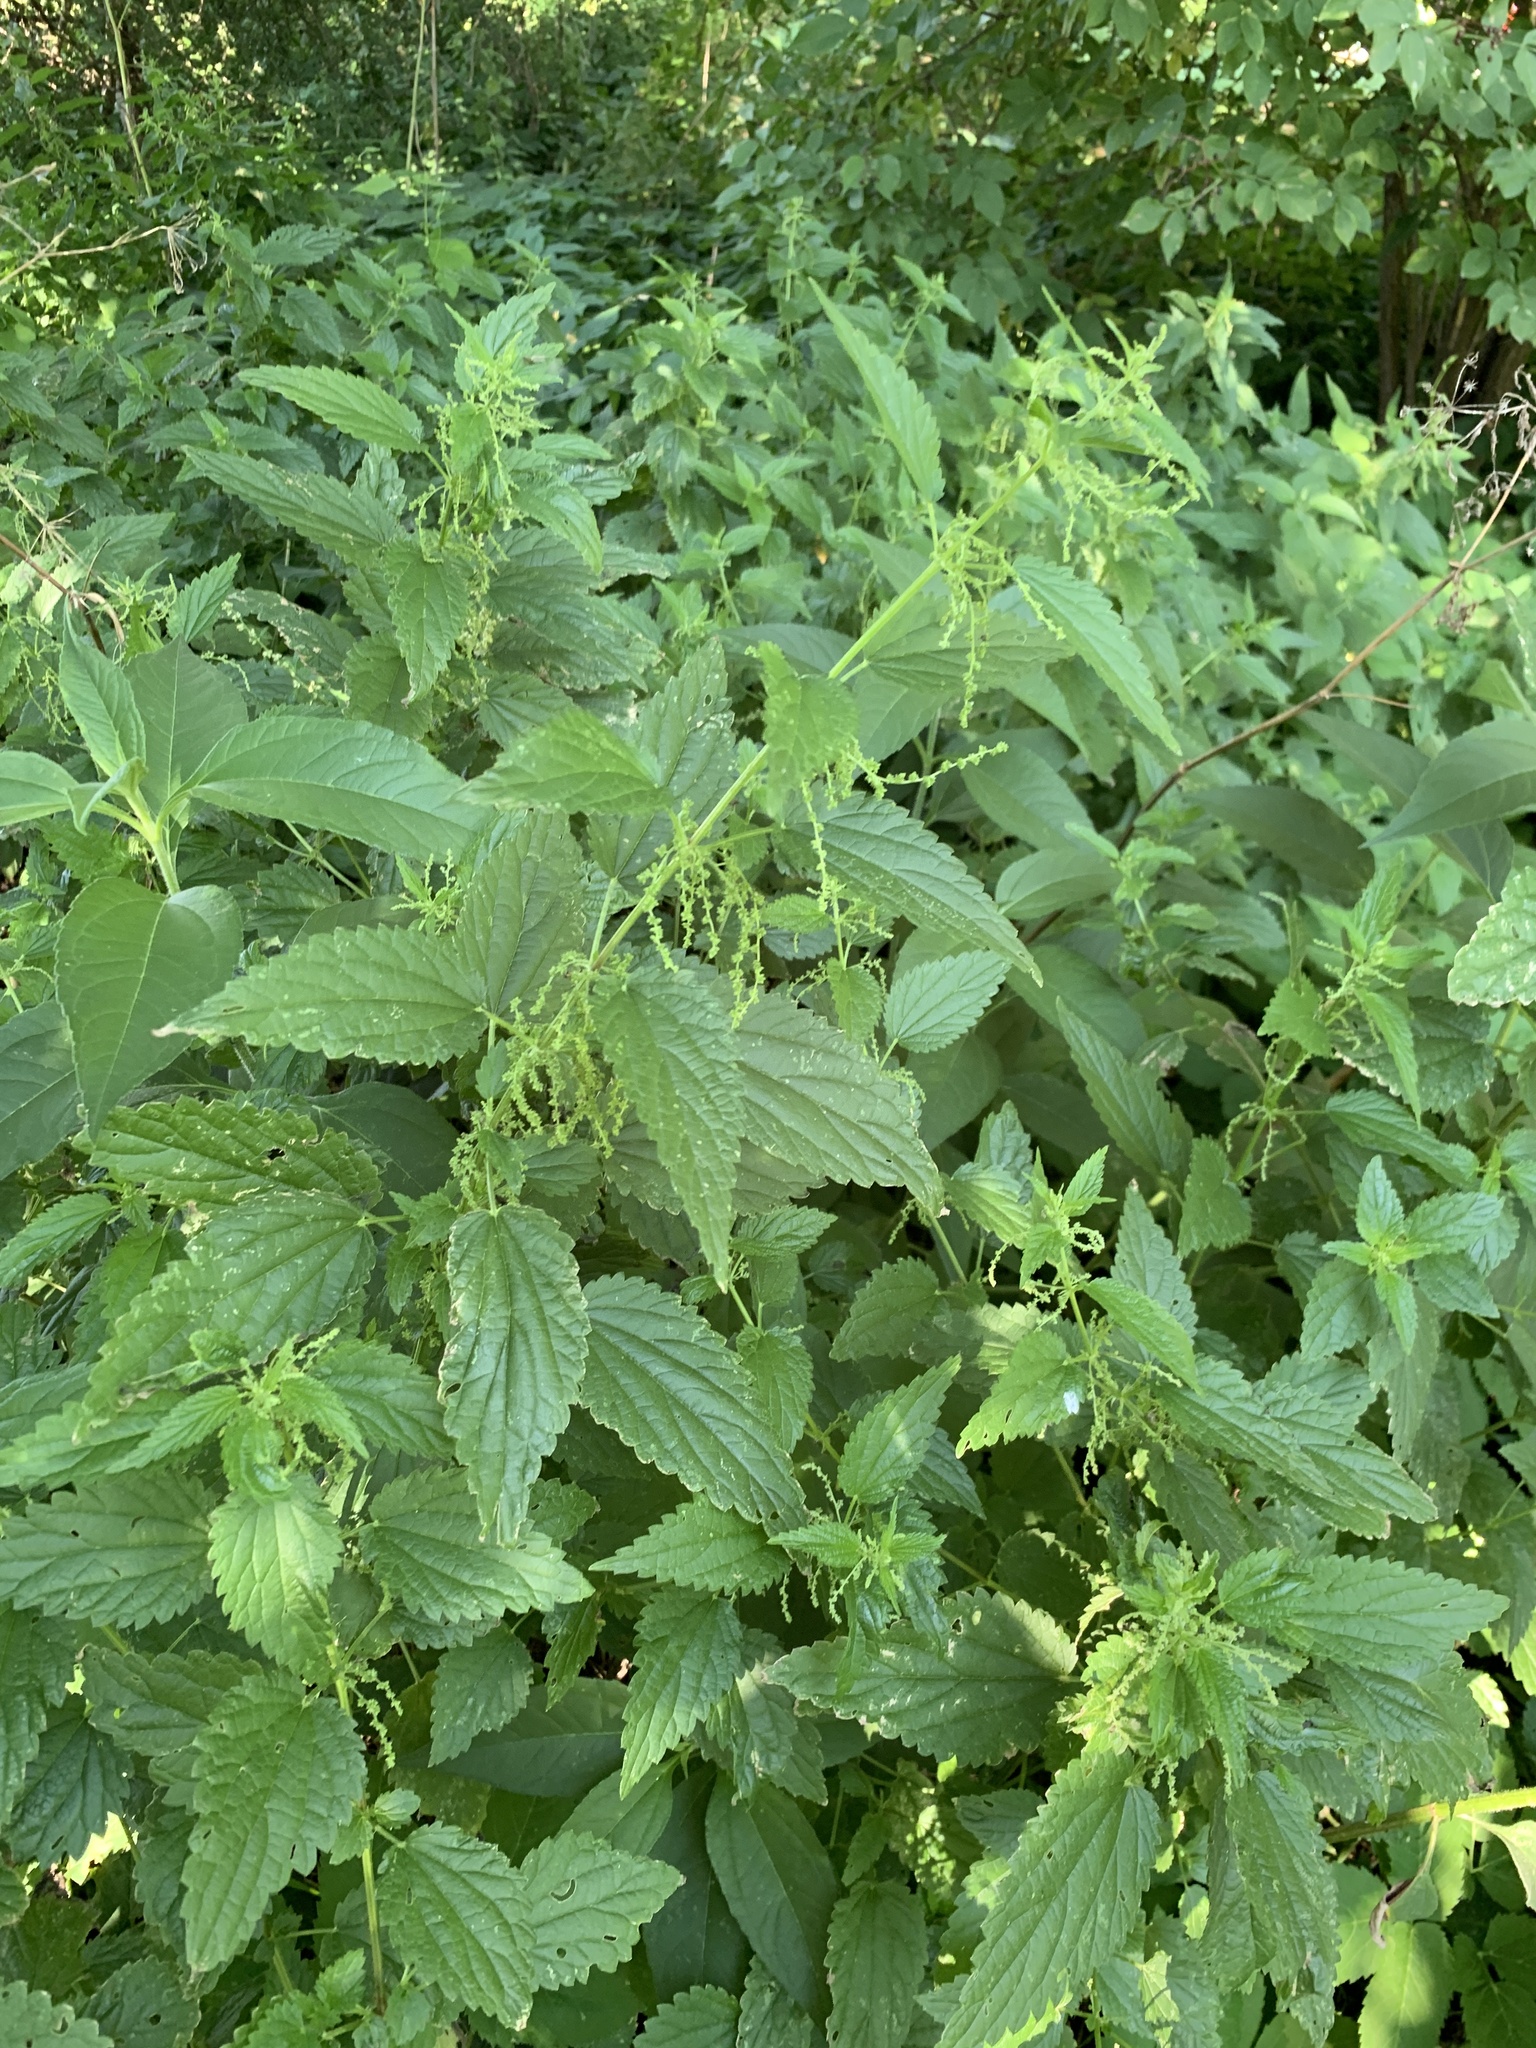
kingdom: Plantae
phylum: Tracheophyta
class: Magnoliopsida
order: Rosales
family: Urticaceae
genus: Urtica
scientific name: Urtica dioica
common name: Common nettle
